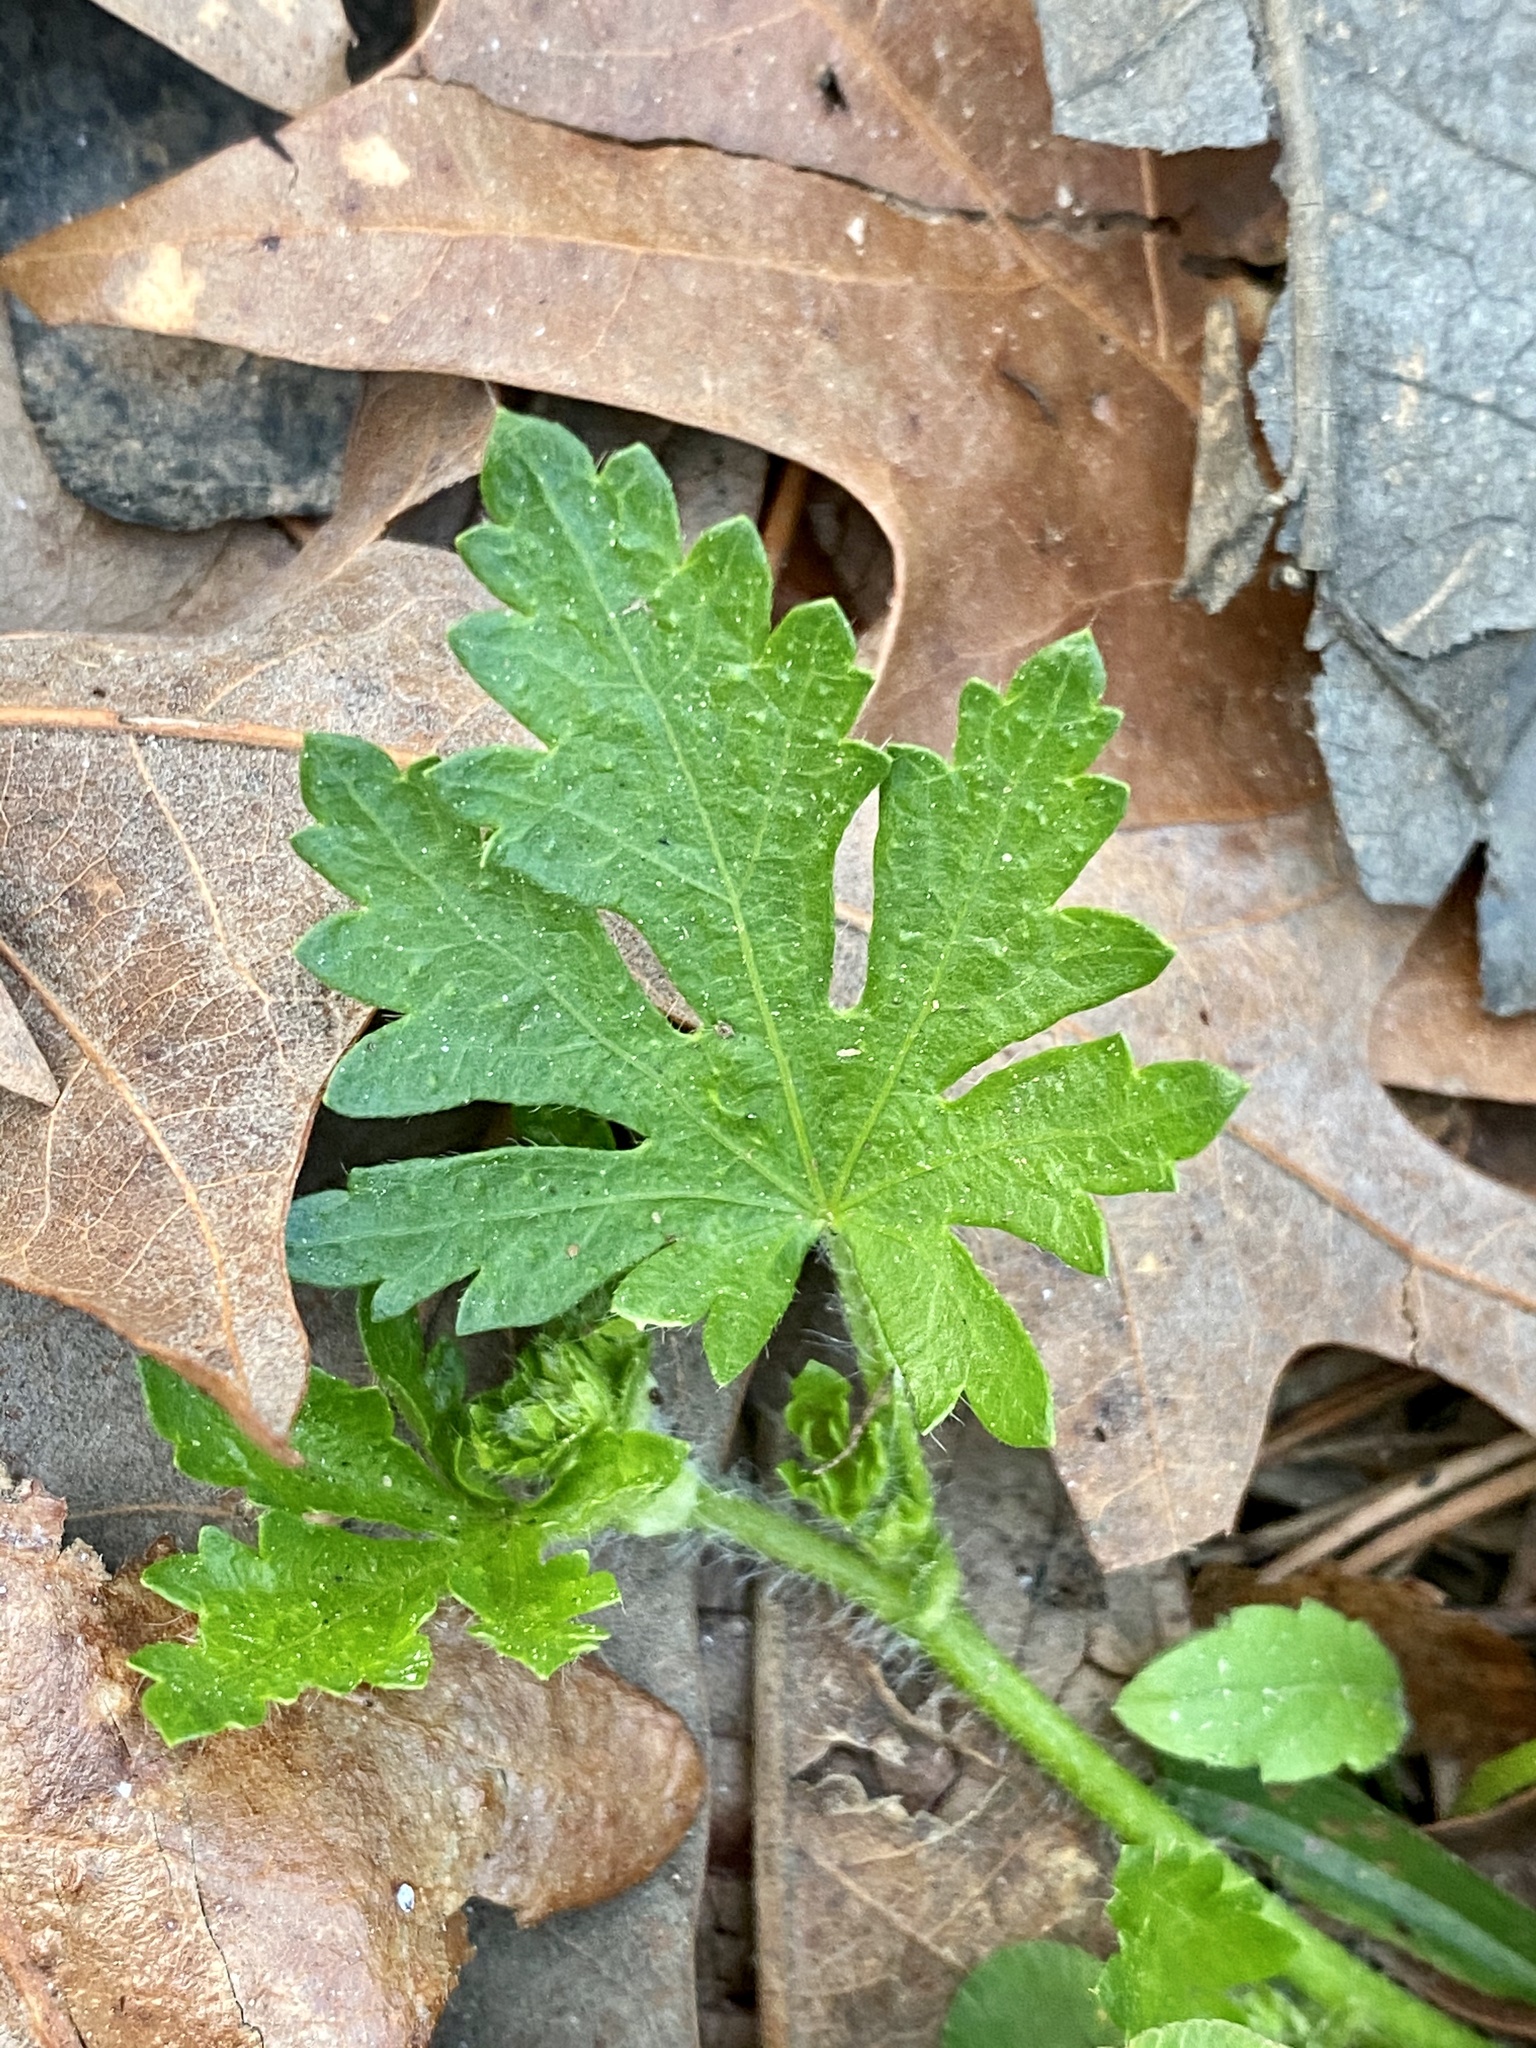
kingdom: Plantae
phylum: Tracheophyta
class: Magnoliopsida
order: Malvales
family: Malvaceae
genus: Modiola
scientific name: Modiola caroliniana
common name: Carolina bristlemallow
